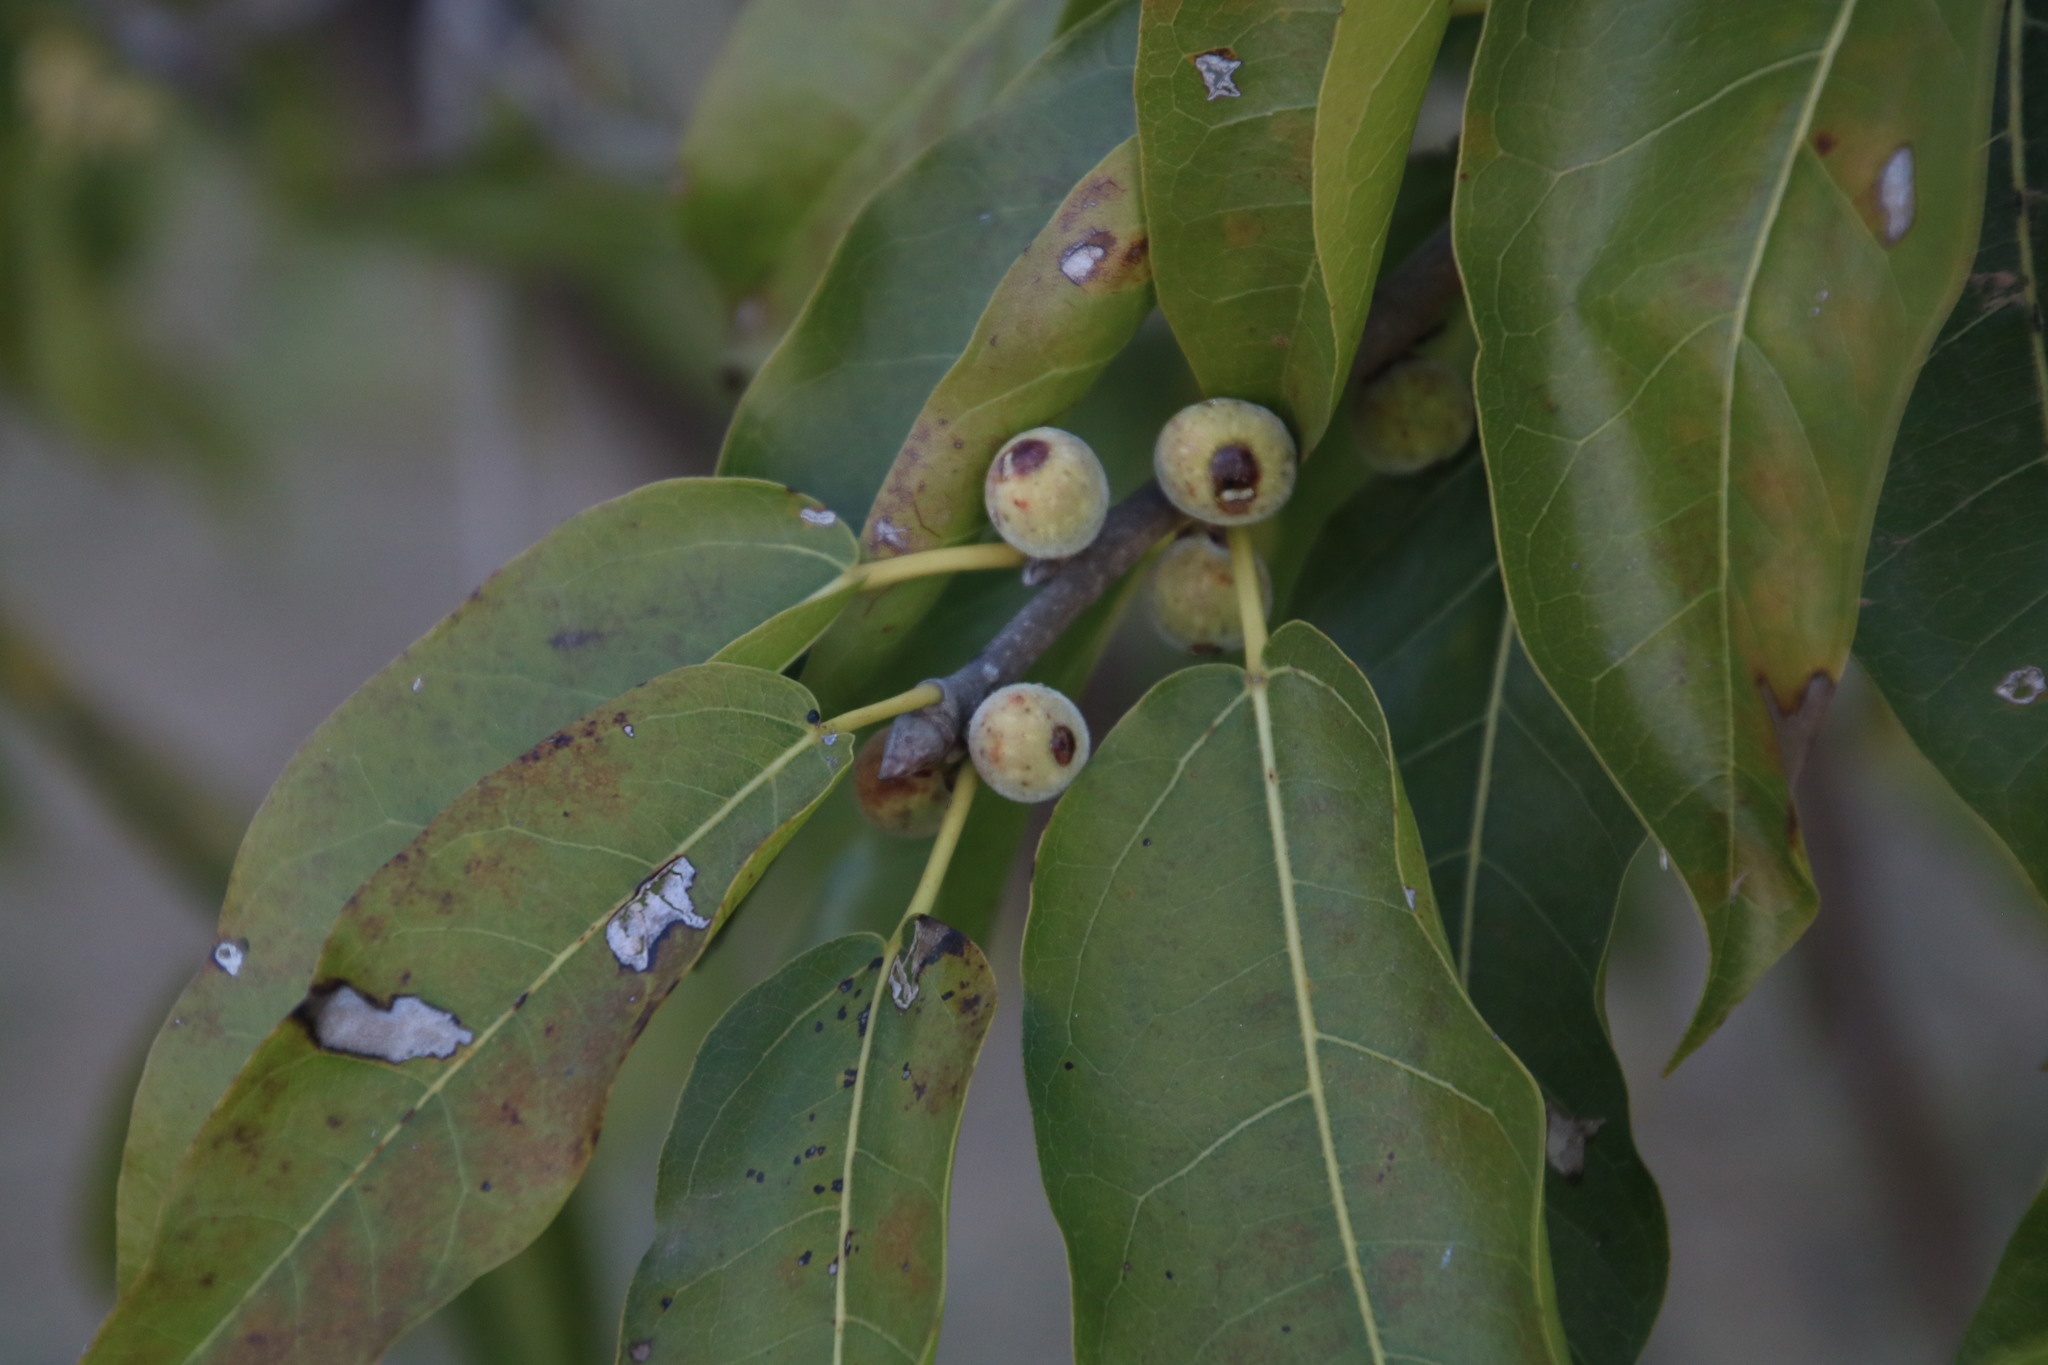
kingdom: Plantae
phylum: Tracheophyta
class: Magnoliopsida
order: Rosales
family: Moraceae
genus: Ficus
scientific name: Ficus ingens
